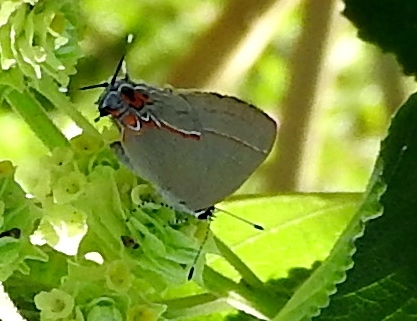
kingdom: Animalia
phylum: Arthropoda
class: Insecta
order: Lepidoptera
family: Lycaenidae
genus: Calycopis
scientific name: Calycopis isobeon
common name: Dusky-blue groundstreak
